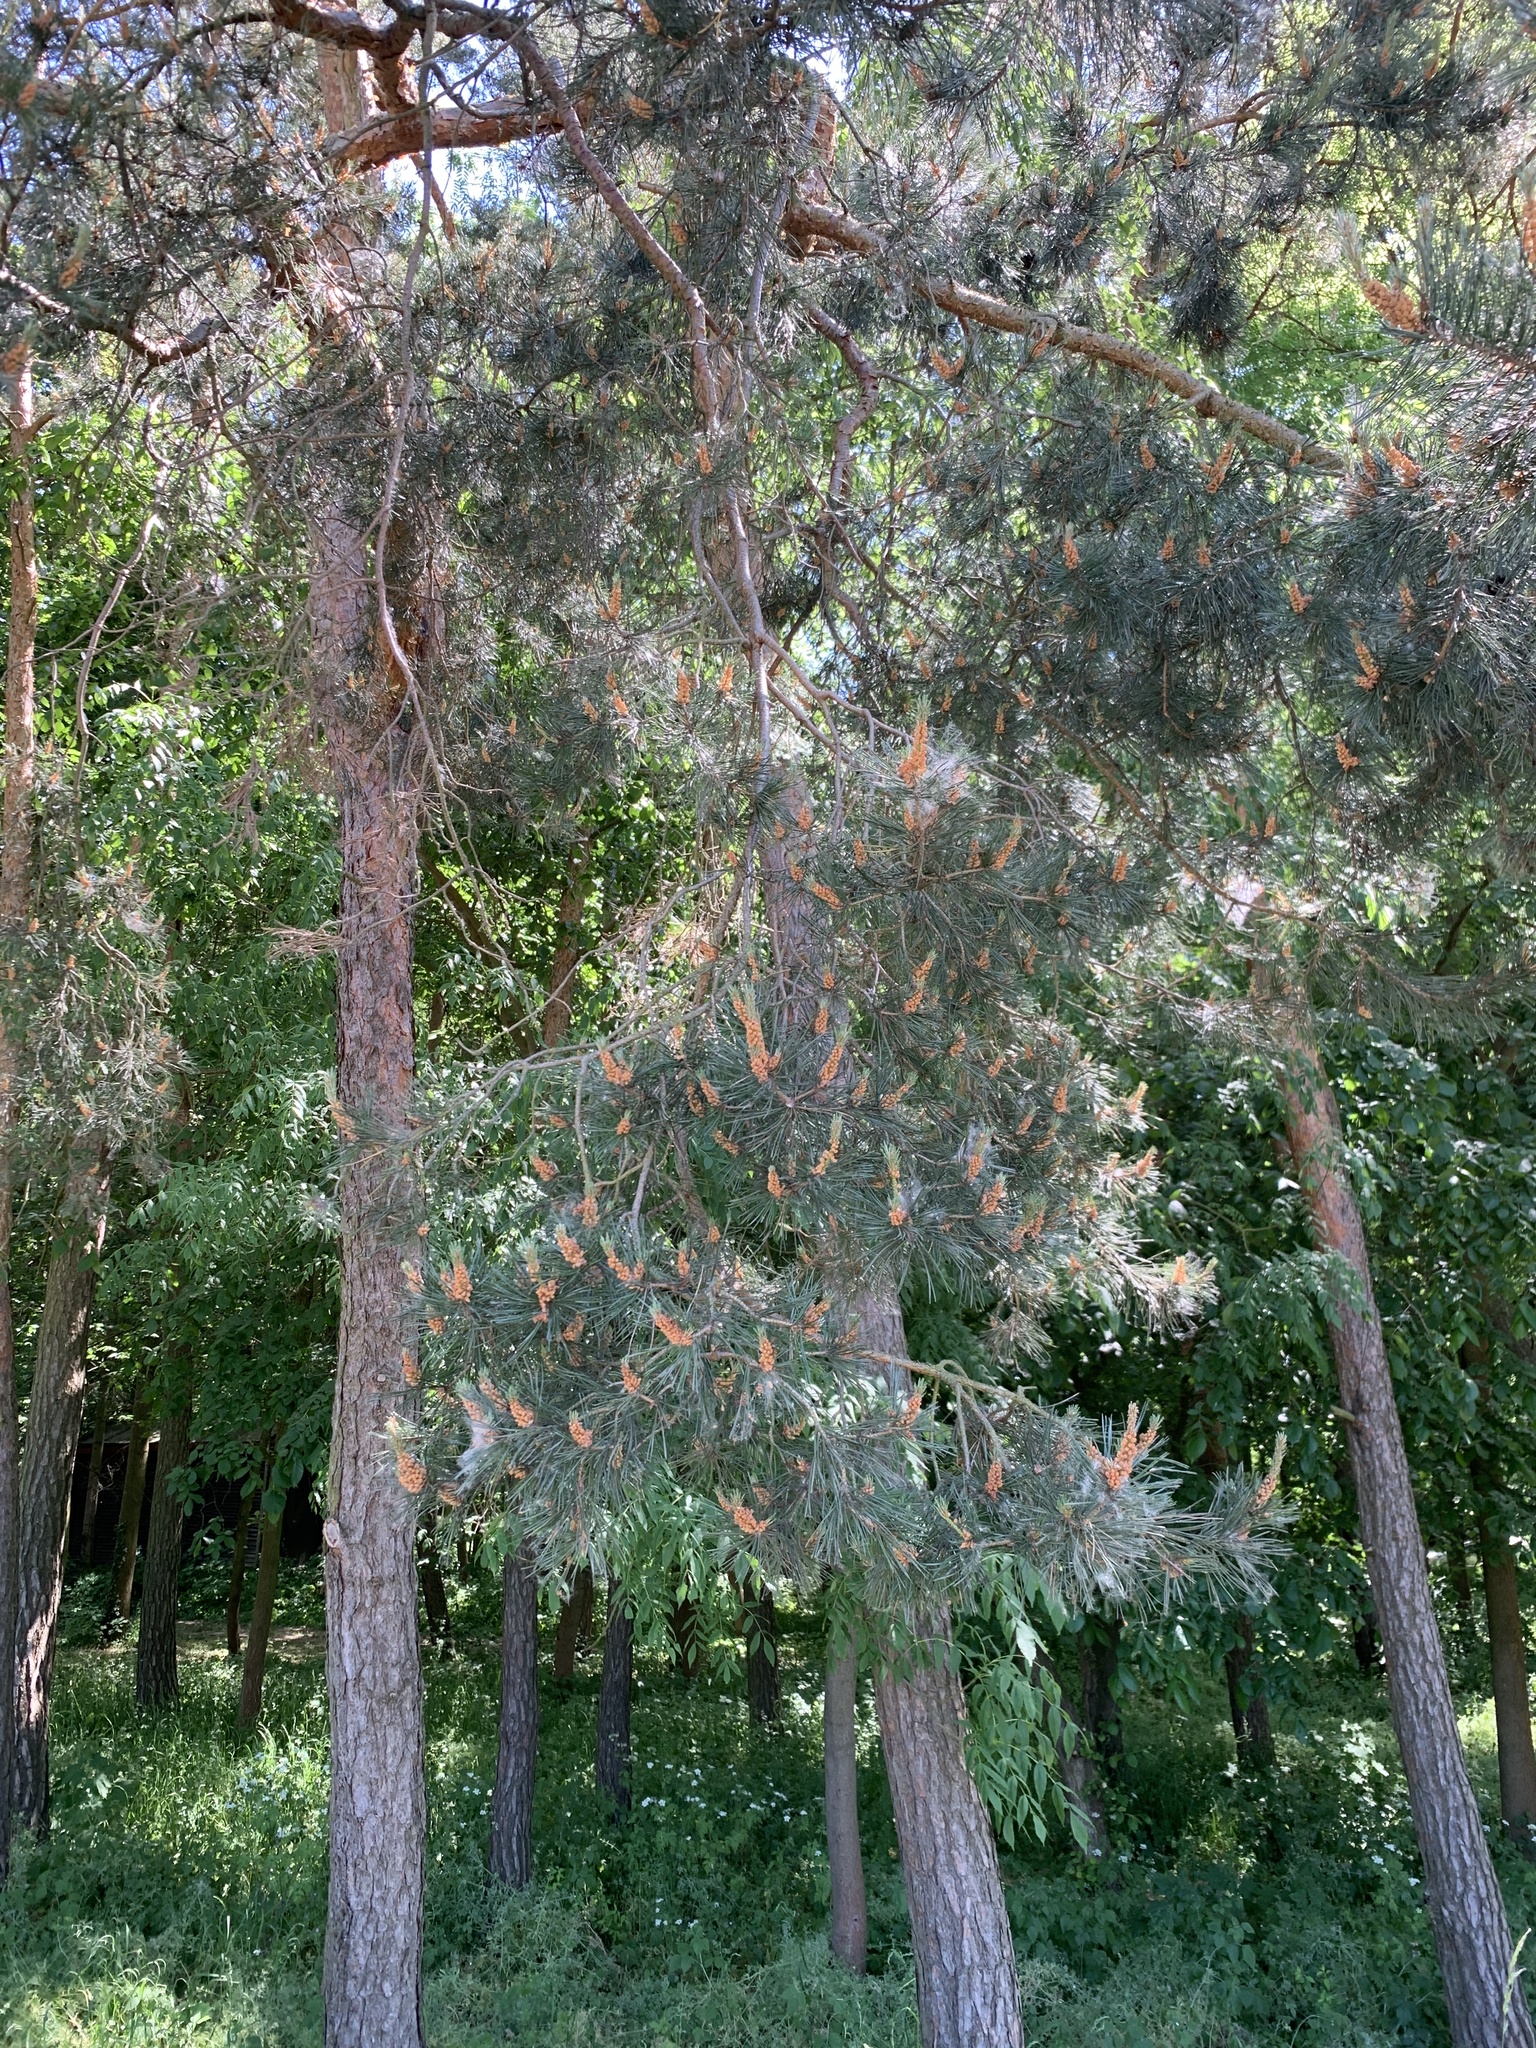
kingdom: Plantae
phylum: Tracheophyta
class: Pinopsida
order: Pinales
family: Pinaceae
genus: Pinus
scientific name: Pinus sylvestris
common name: Scots pine
